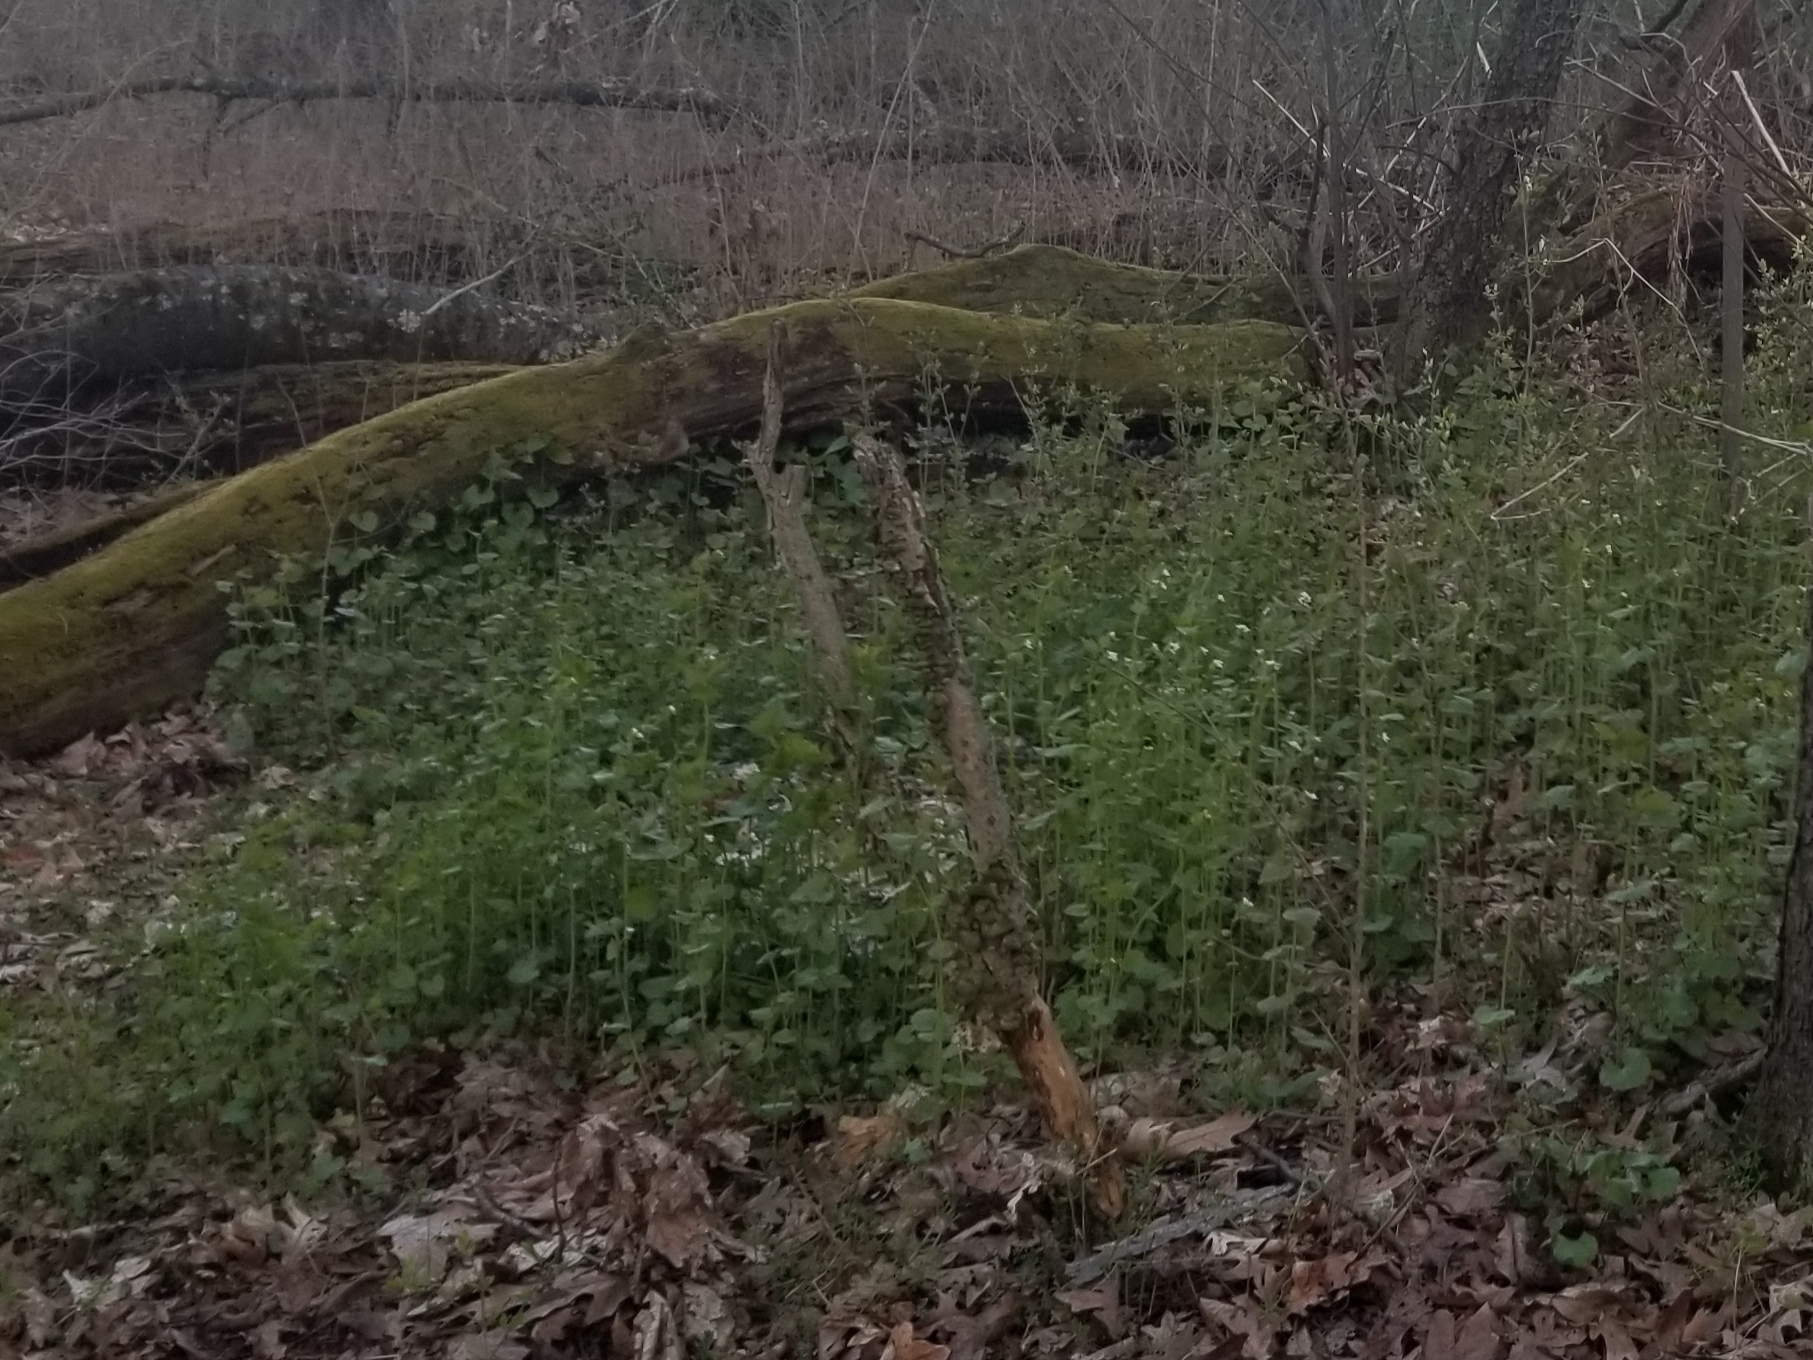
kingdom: Plantae
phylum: Tracheophyta
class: Magnoliopsida
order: Brassicales
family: Brassicaceae
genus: Alliaria
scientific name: Alliaria petiolata
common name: Garlic mustard
